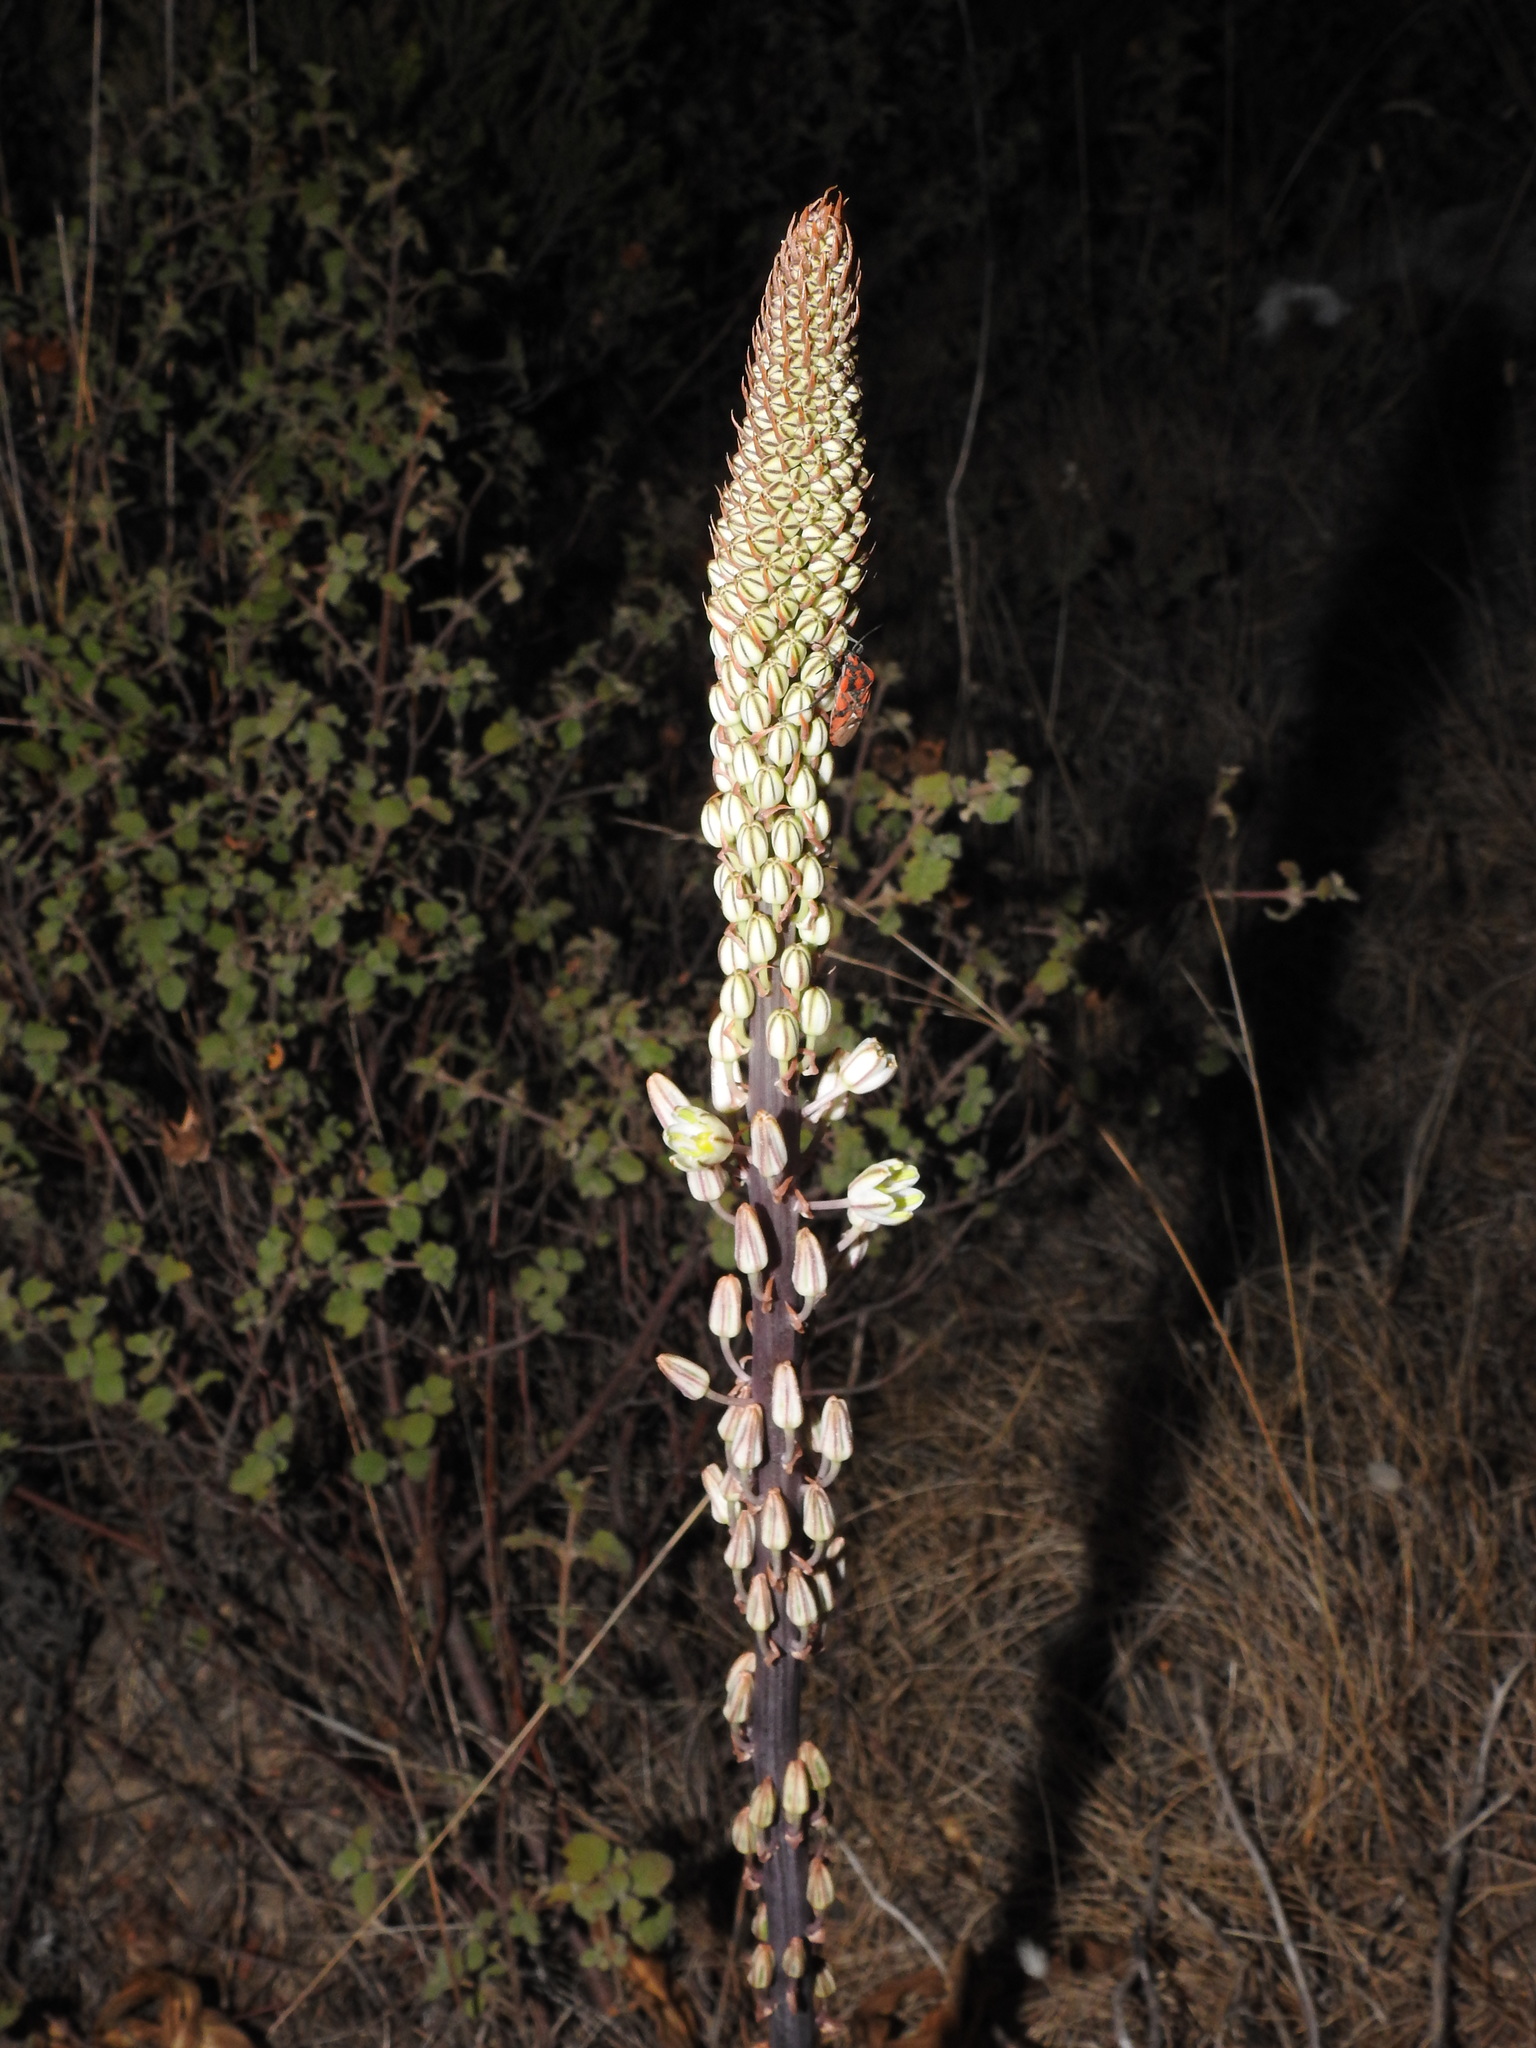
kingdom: Plantae
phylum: Tracheophyta
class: Liliopsida
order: Asparagales
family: Asparagaceae
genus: Drimia
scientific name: Drimia maritima
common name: Maritime squill
